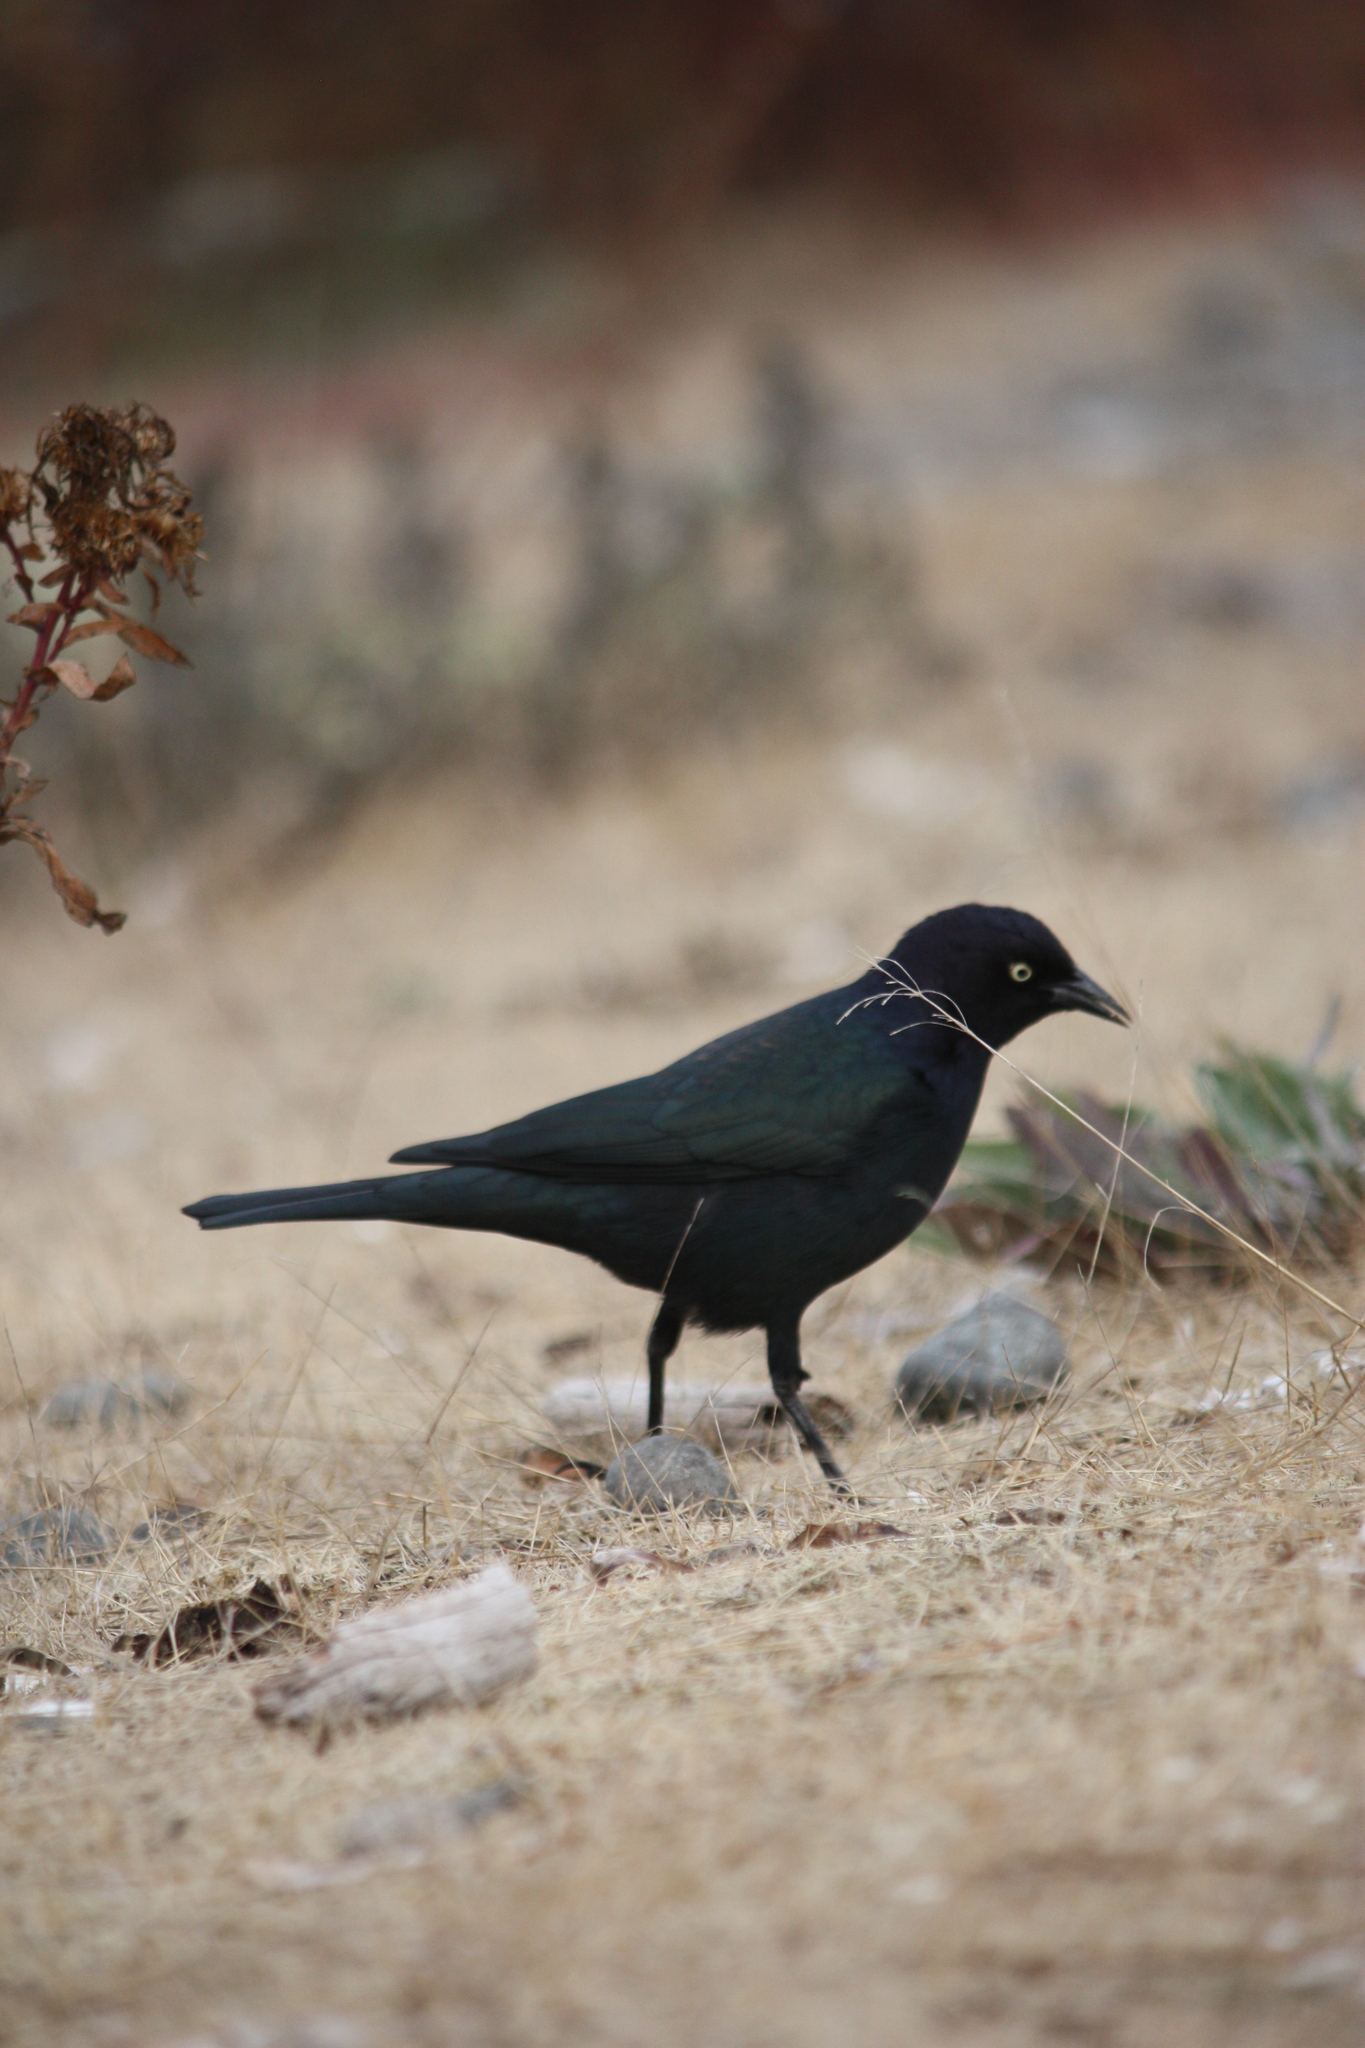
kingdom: Animalia
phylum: Chordata
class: Aves
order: Passeriformes
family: Icteridae
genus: Euphagus
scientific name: Euphagus cyanocephalus
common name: Brewer's blackbird
